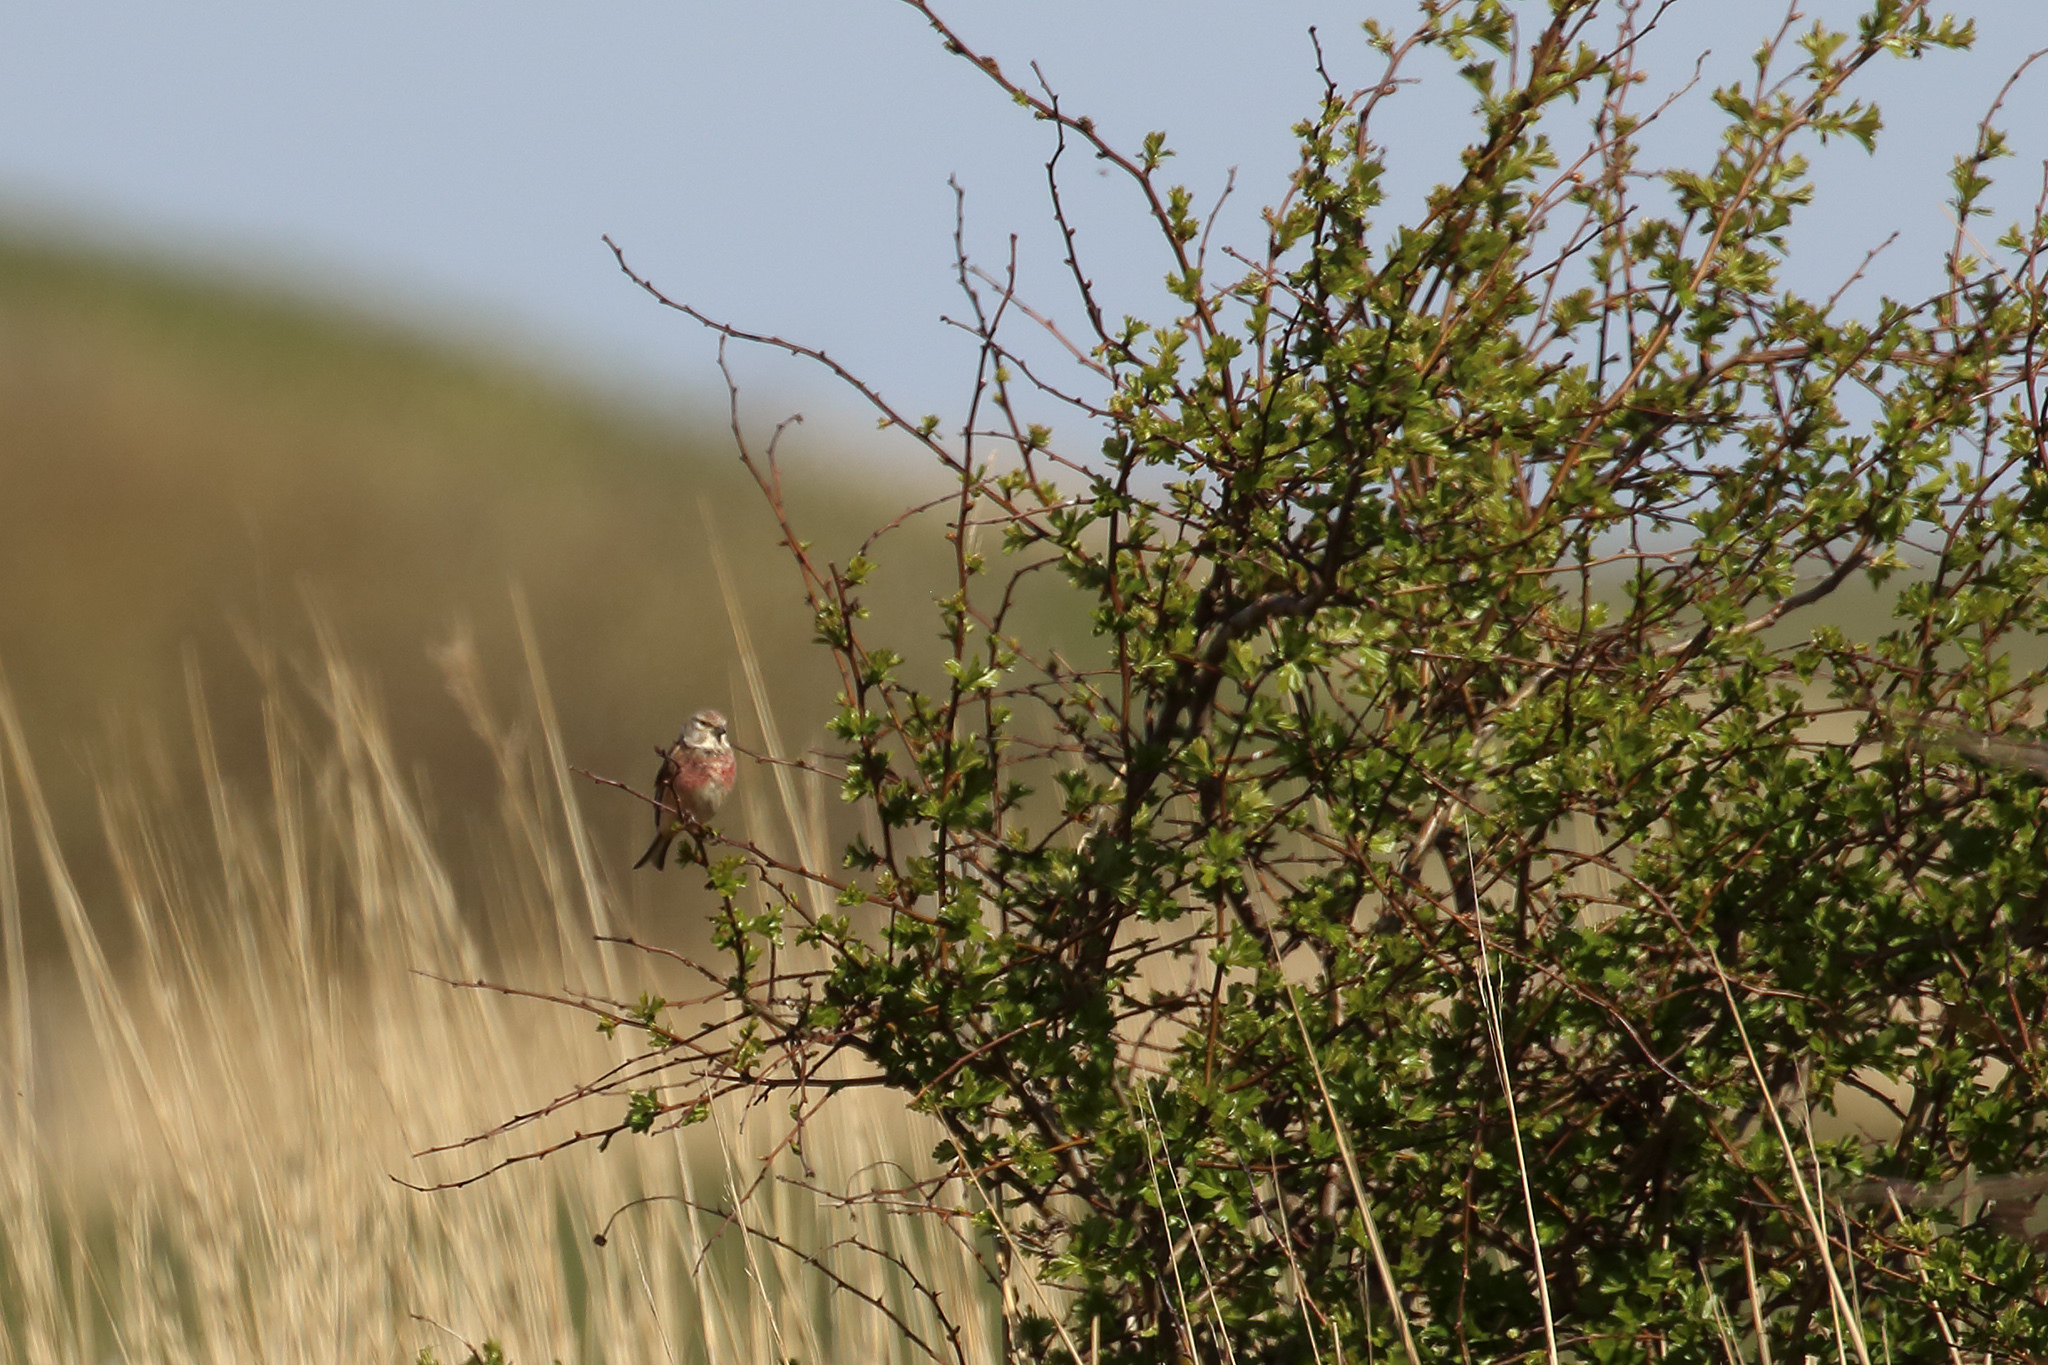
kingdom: Animalia
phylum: Chordata
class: Aves
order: Passeriformes
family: Fringillidae
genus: Linaria
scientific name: Linaria cannabina
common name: Common linnet
